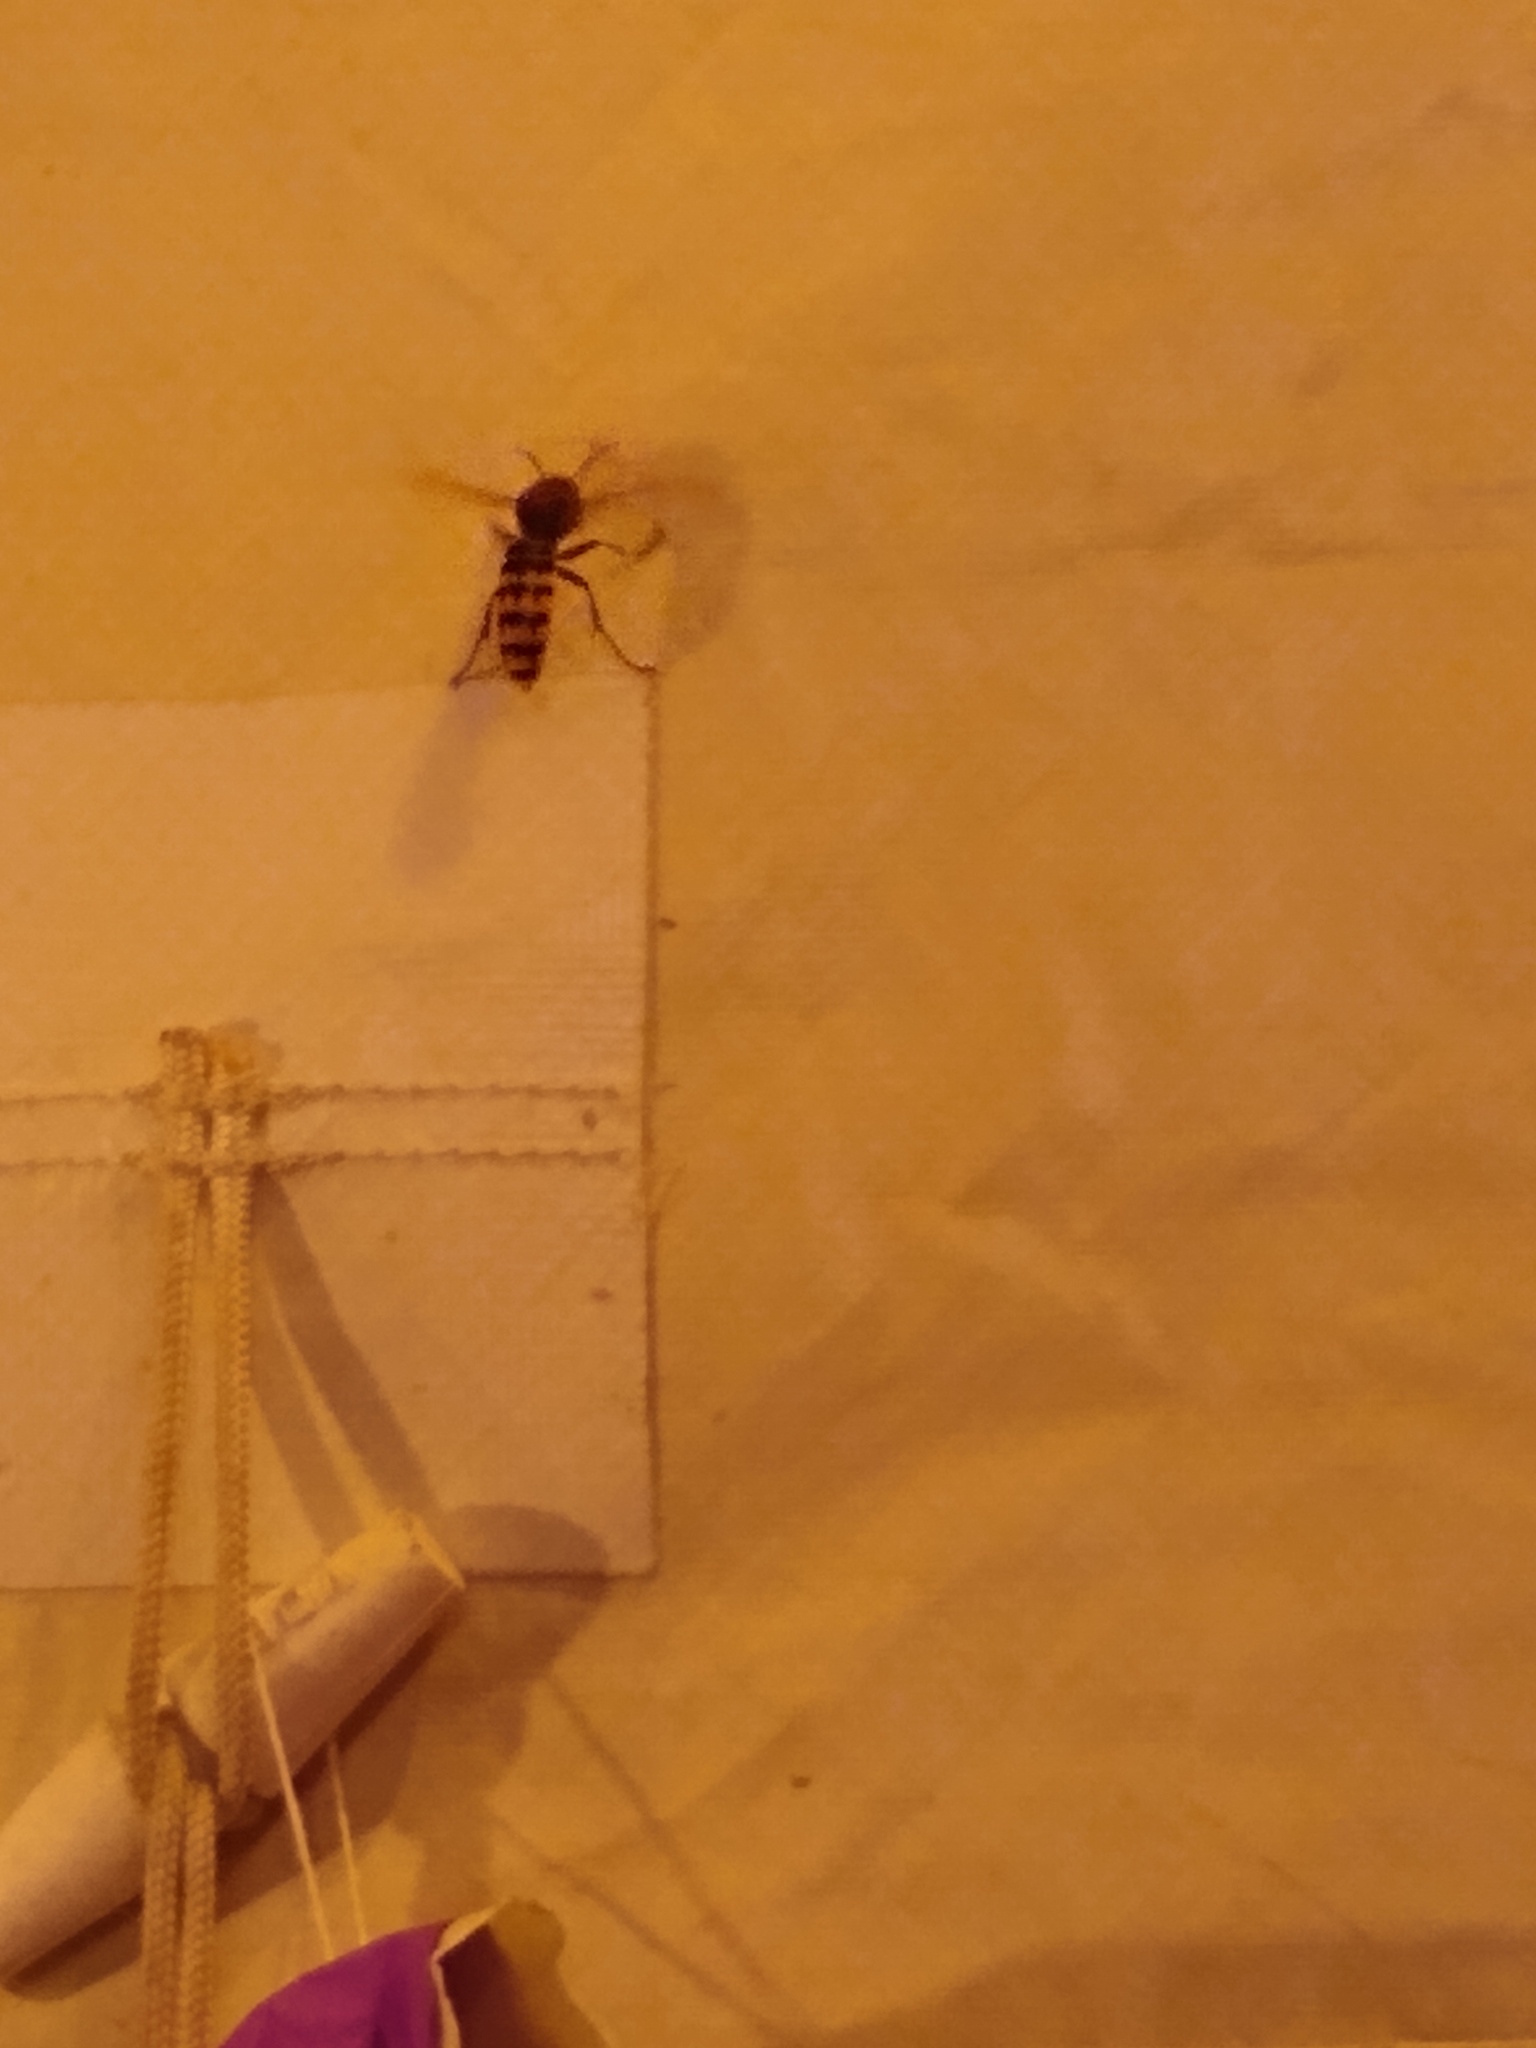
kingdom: Animalia
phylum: Arthropoda
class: Insecta
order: Hymenoptera
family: Vespidae
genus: Vespa
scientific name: Vespa crabro
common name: Hornet
